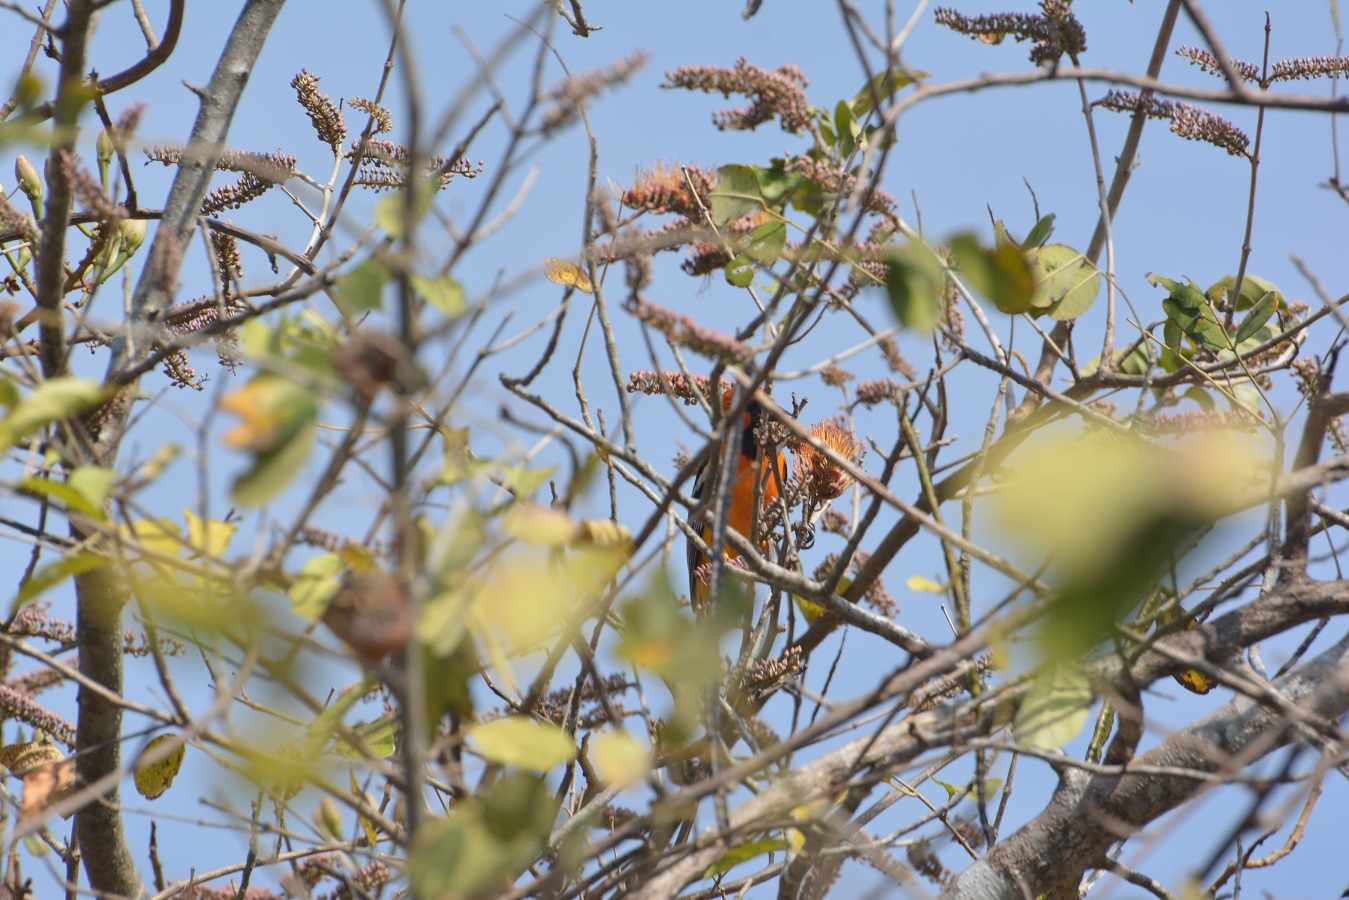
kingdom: Animalia
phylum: Chordata
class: Aves
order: Passeriformes
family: Icteridae
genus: Icterus
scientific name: Icterus pustulatus
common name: Streak-backed oriole
